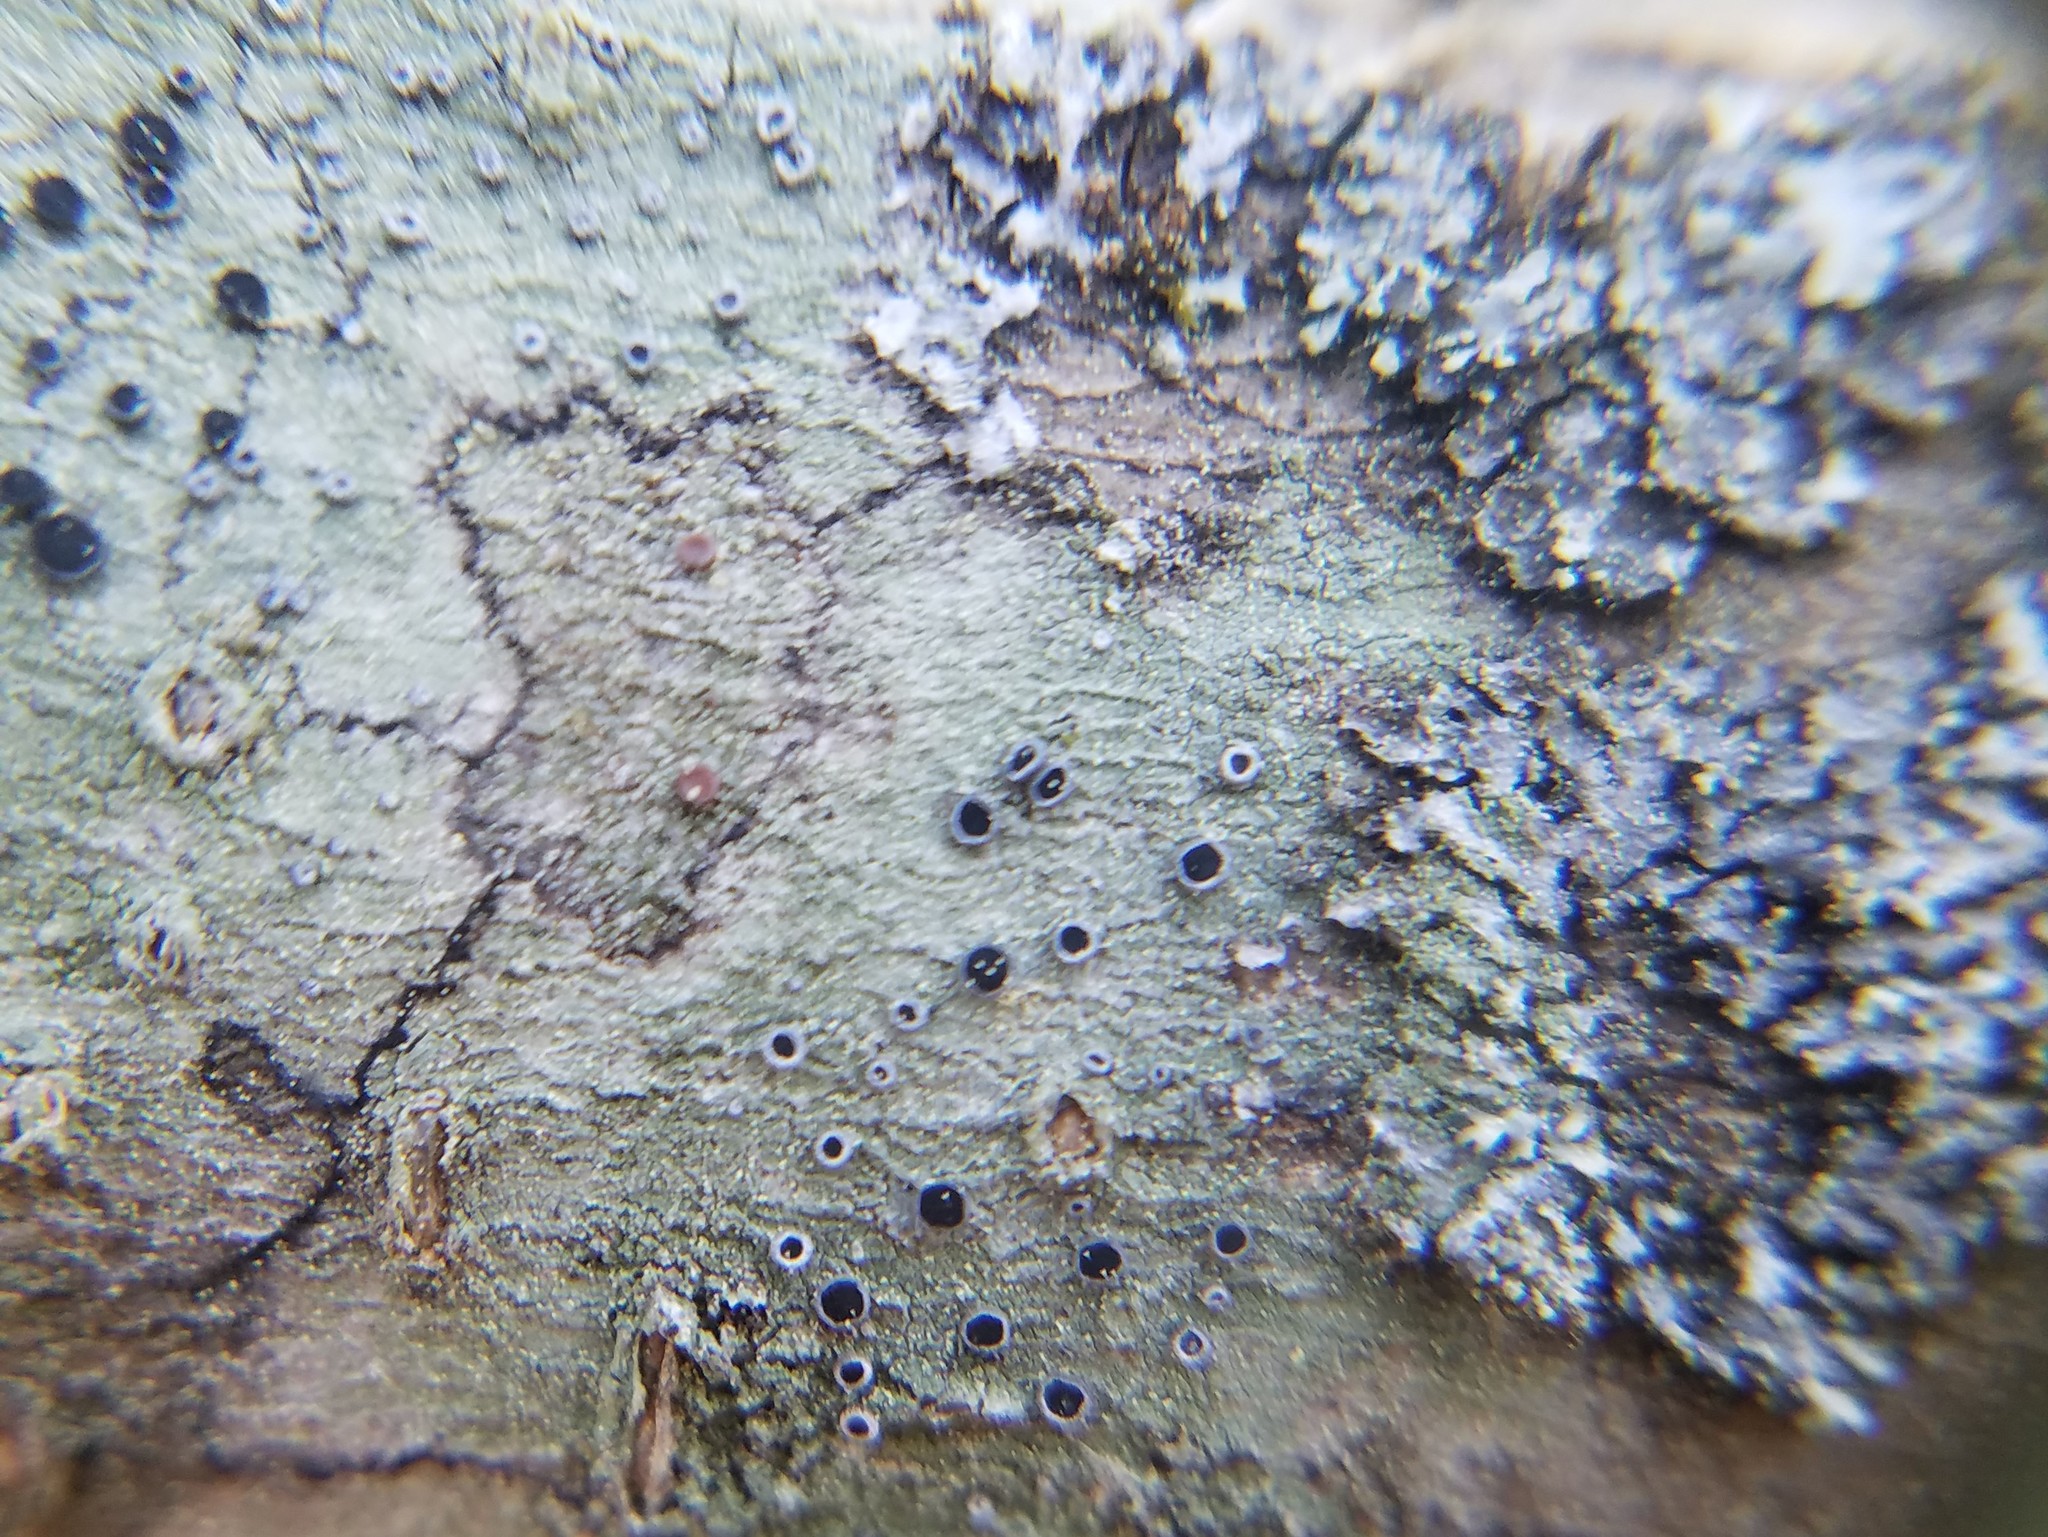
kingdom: Fungi
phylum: Ascomycota
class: Lecanoromycetes
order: Lecanorales
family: Ramalinaceae
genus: Bacidia
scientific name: Bacidia suffusa
